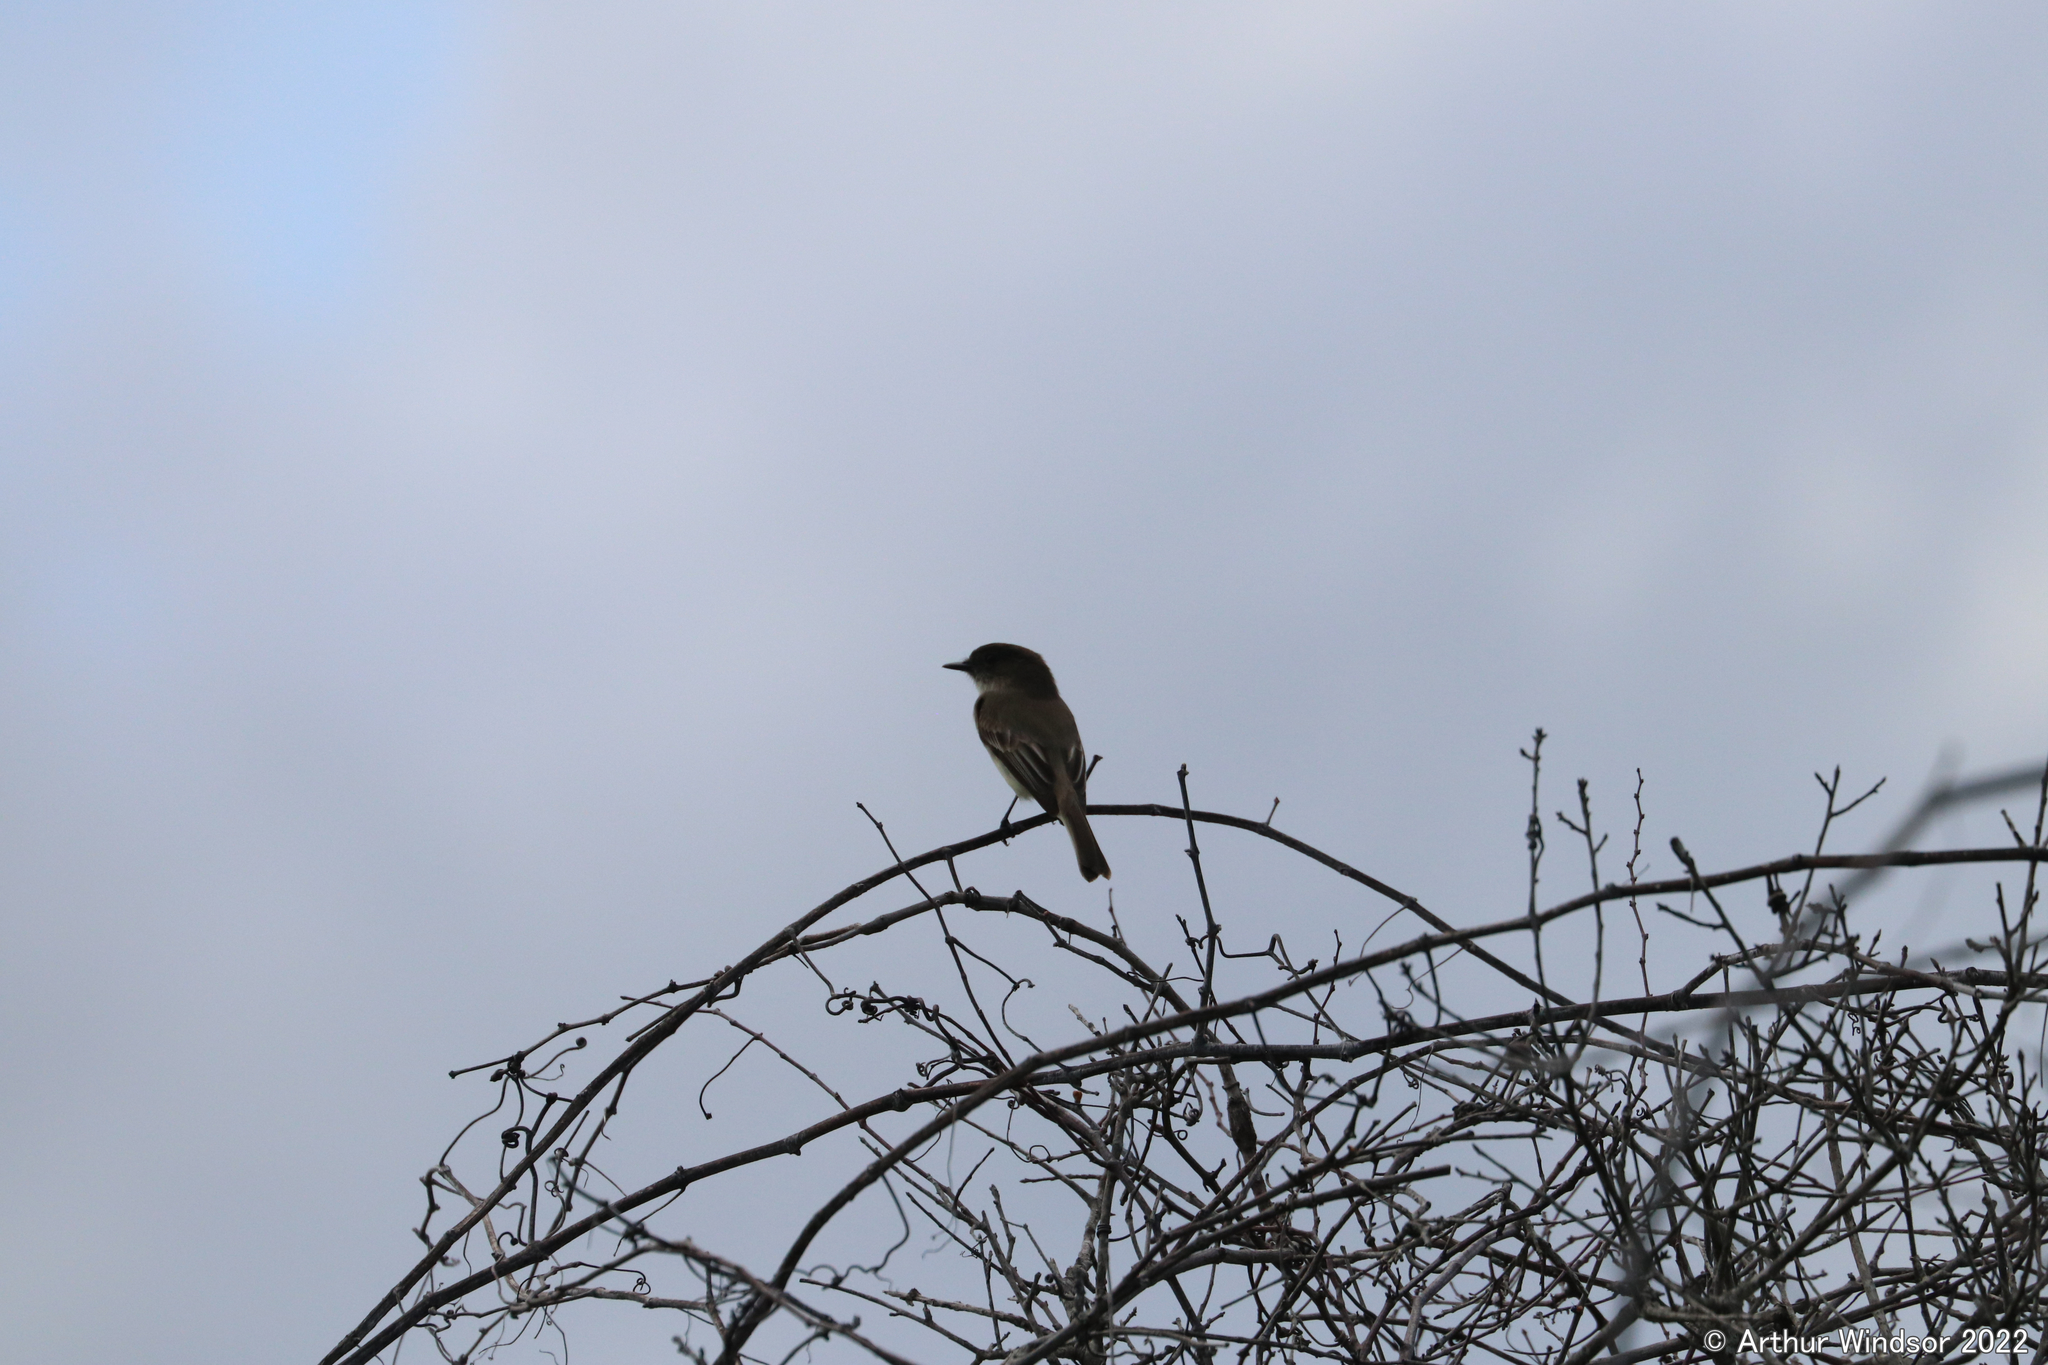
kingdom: Animalia
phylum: Chordata
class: Aves
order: Passeriformes
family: Tyrannidae
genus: Sayornis
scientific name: Sayornis phoebe
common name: Eastern phoebe
